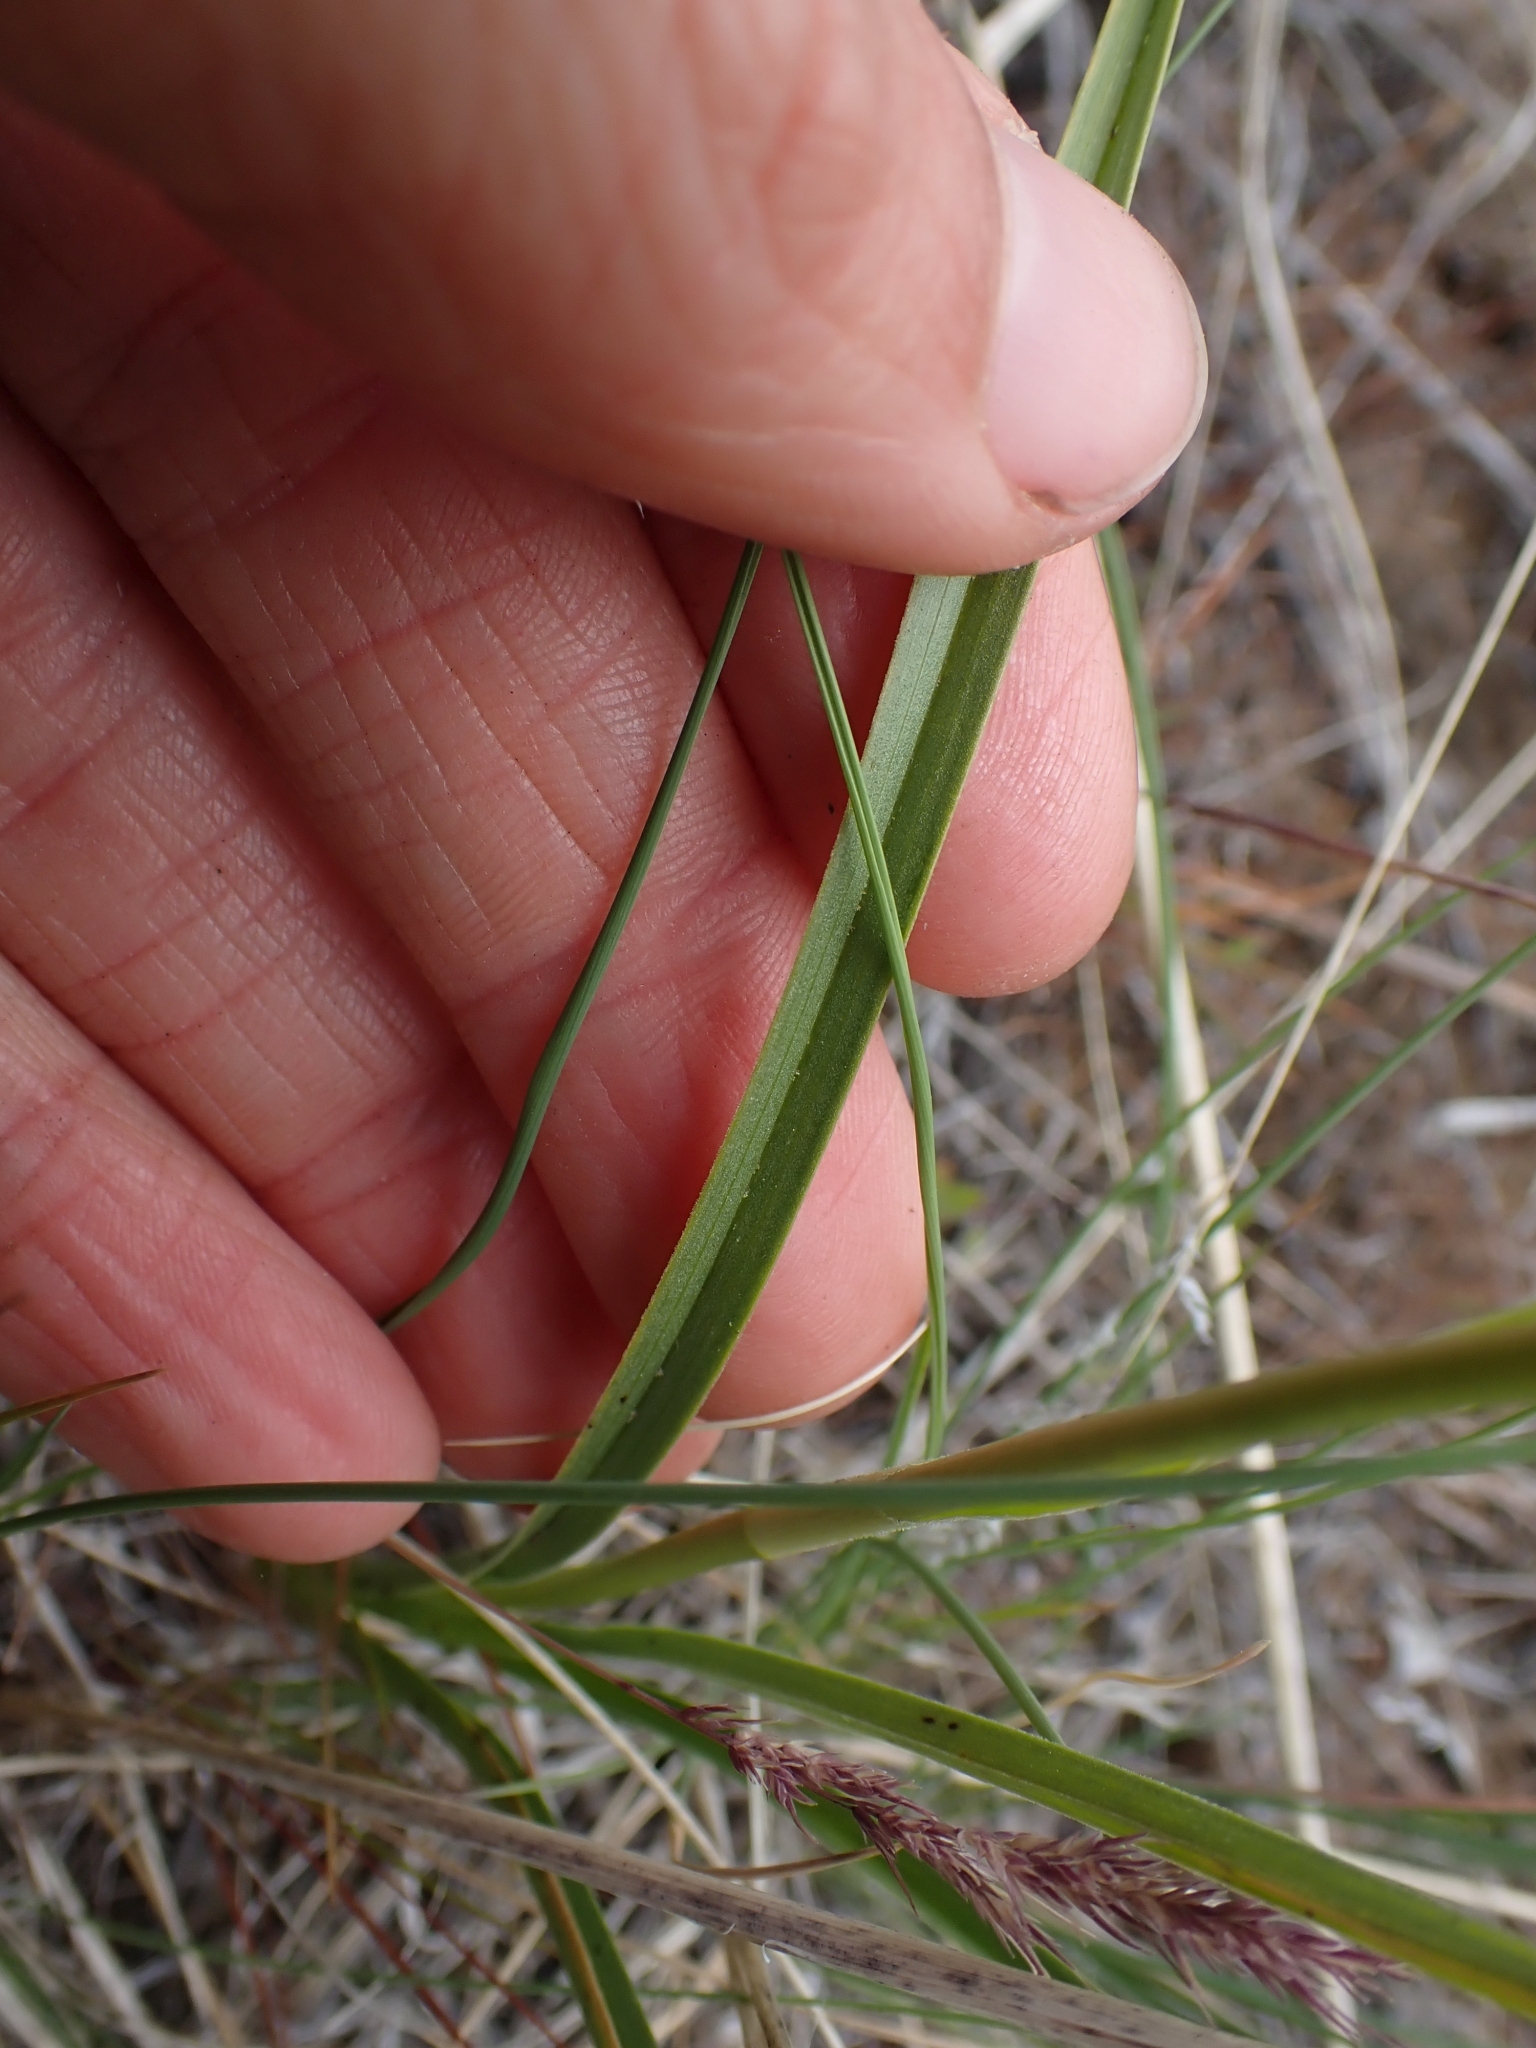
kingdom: Plantae
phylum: Tracheophyta
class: Liliopsida
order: Liliales
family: Melanthiaceae
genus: Toxicoscordion
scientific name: Toxicoscordion venenosum
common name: Meadow death camas
